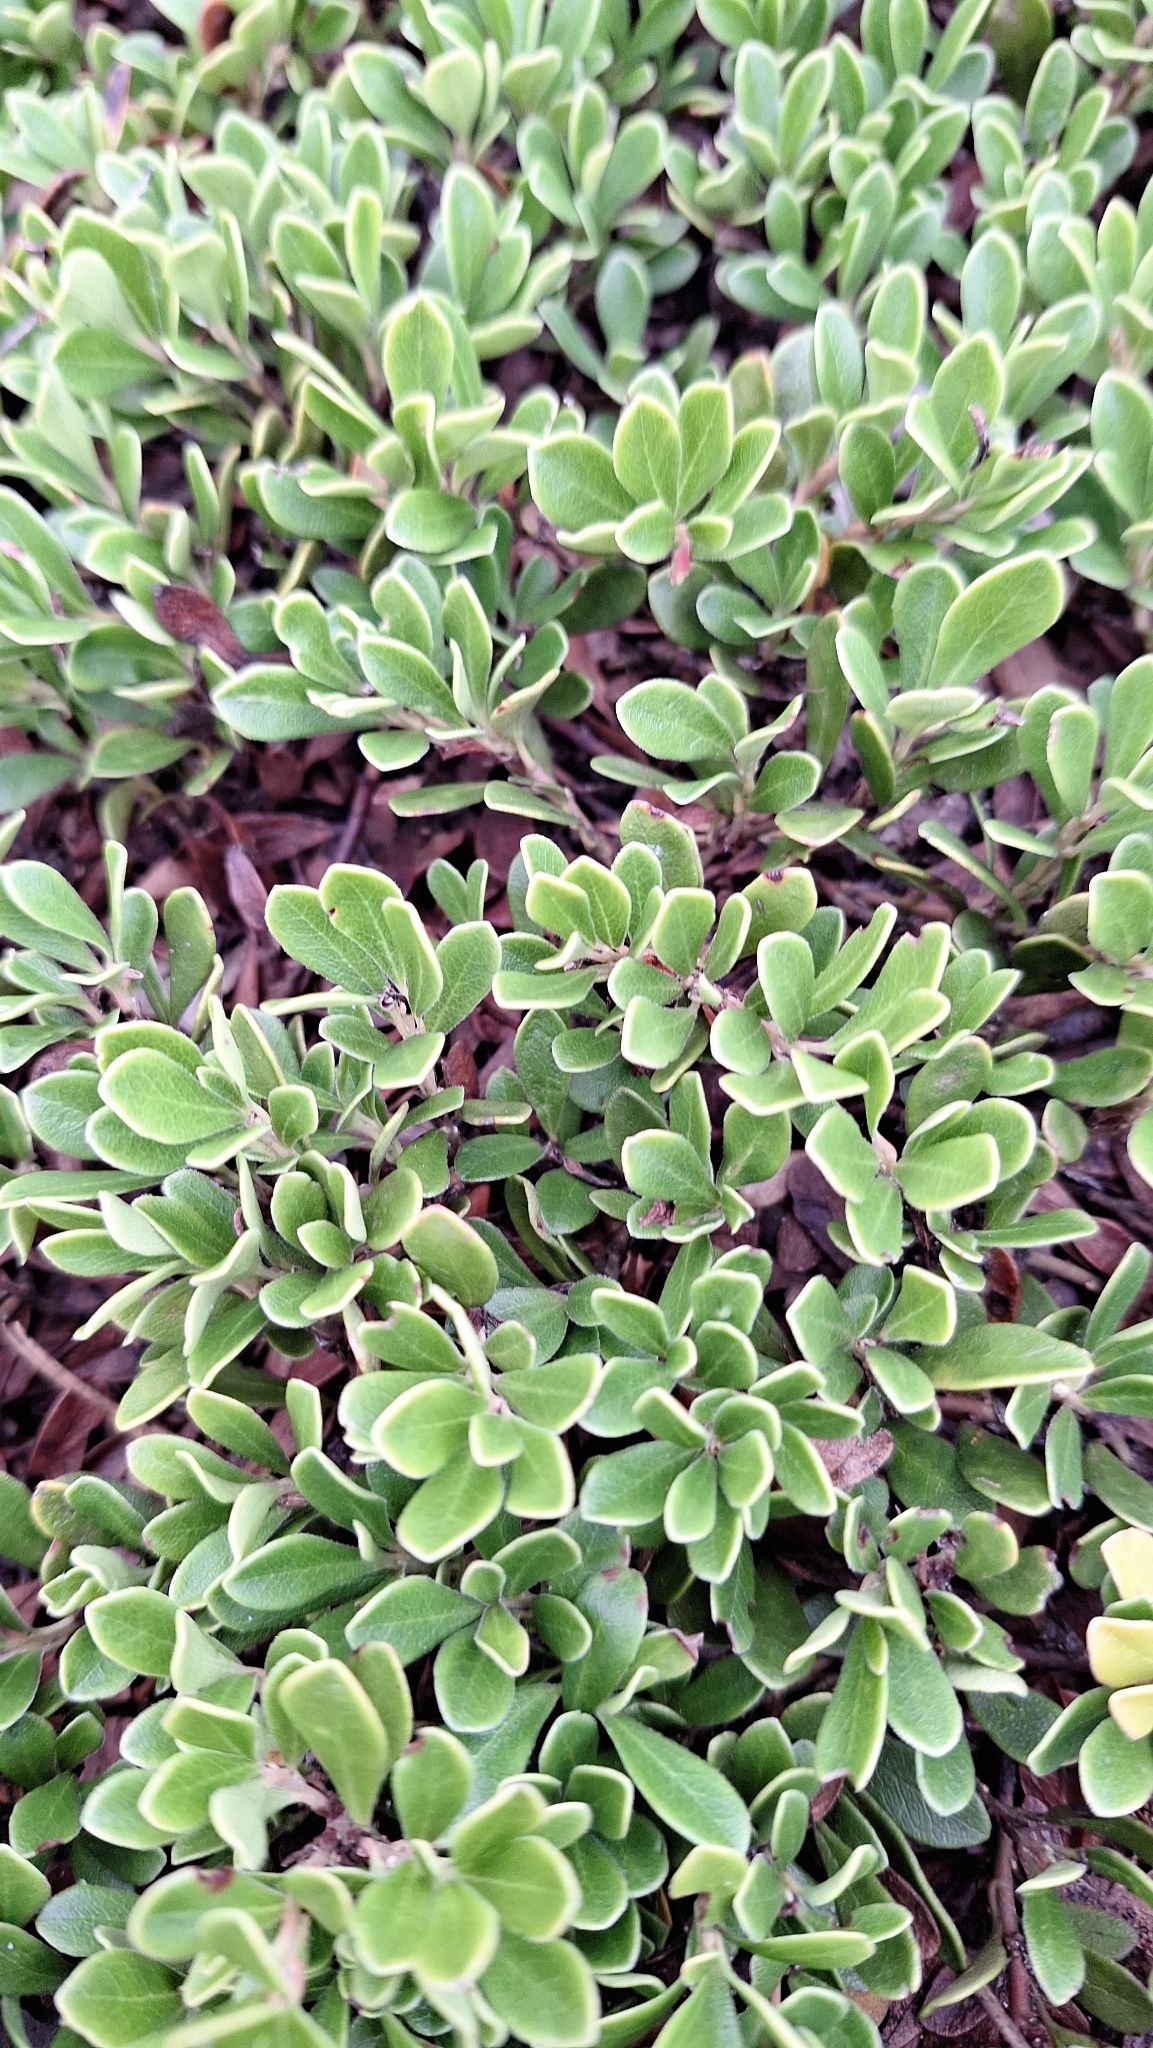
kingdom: Plantae
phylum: Tracheophyta
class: Magnoliopsida
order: Ericales
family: Ericaceae
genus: Arctostaphylos
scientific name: Arctostaphylos uva-ursi
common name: Bearberry
